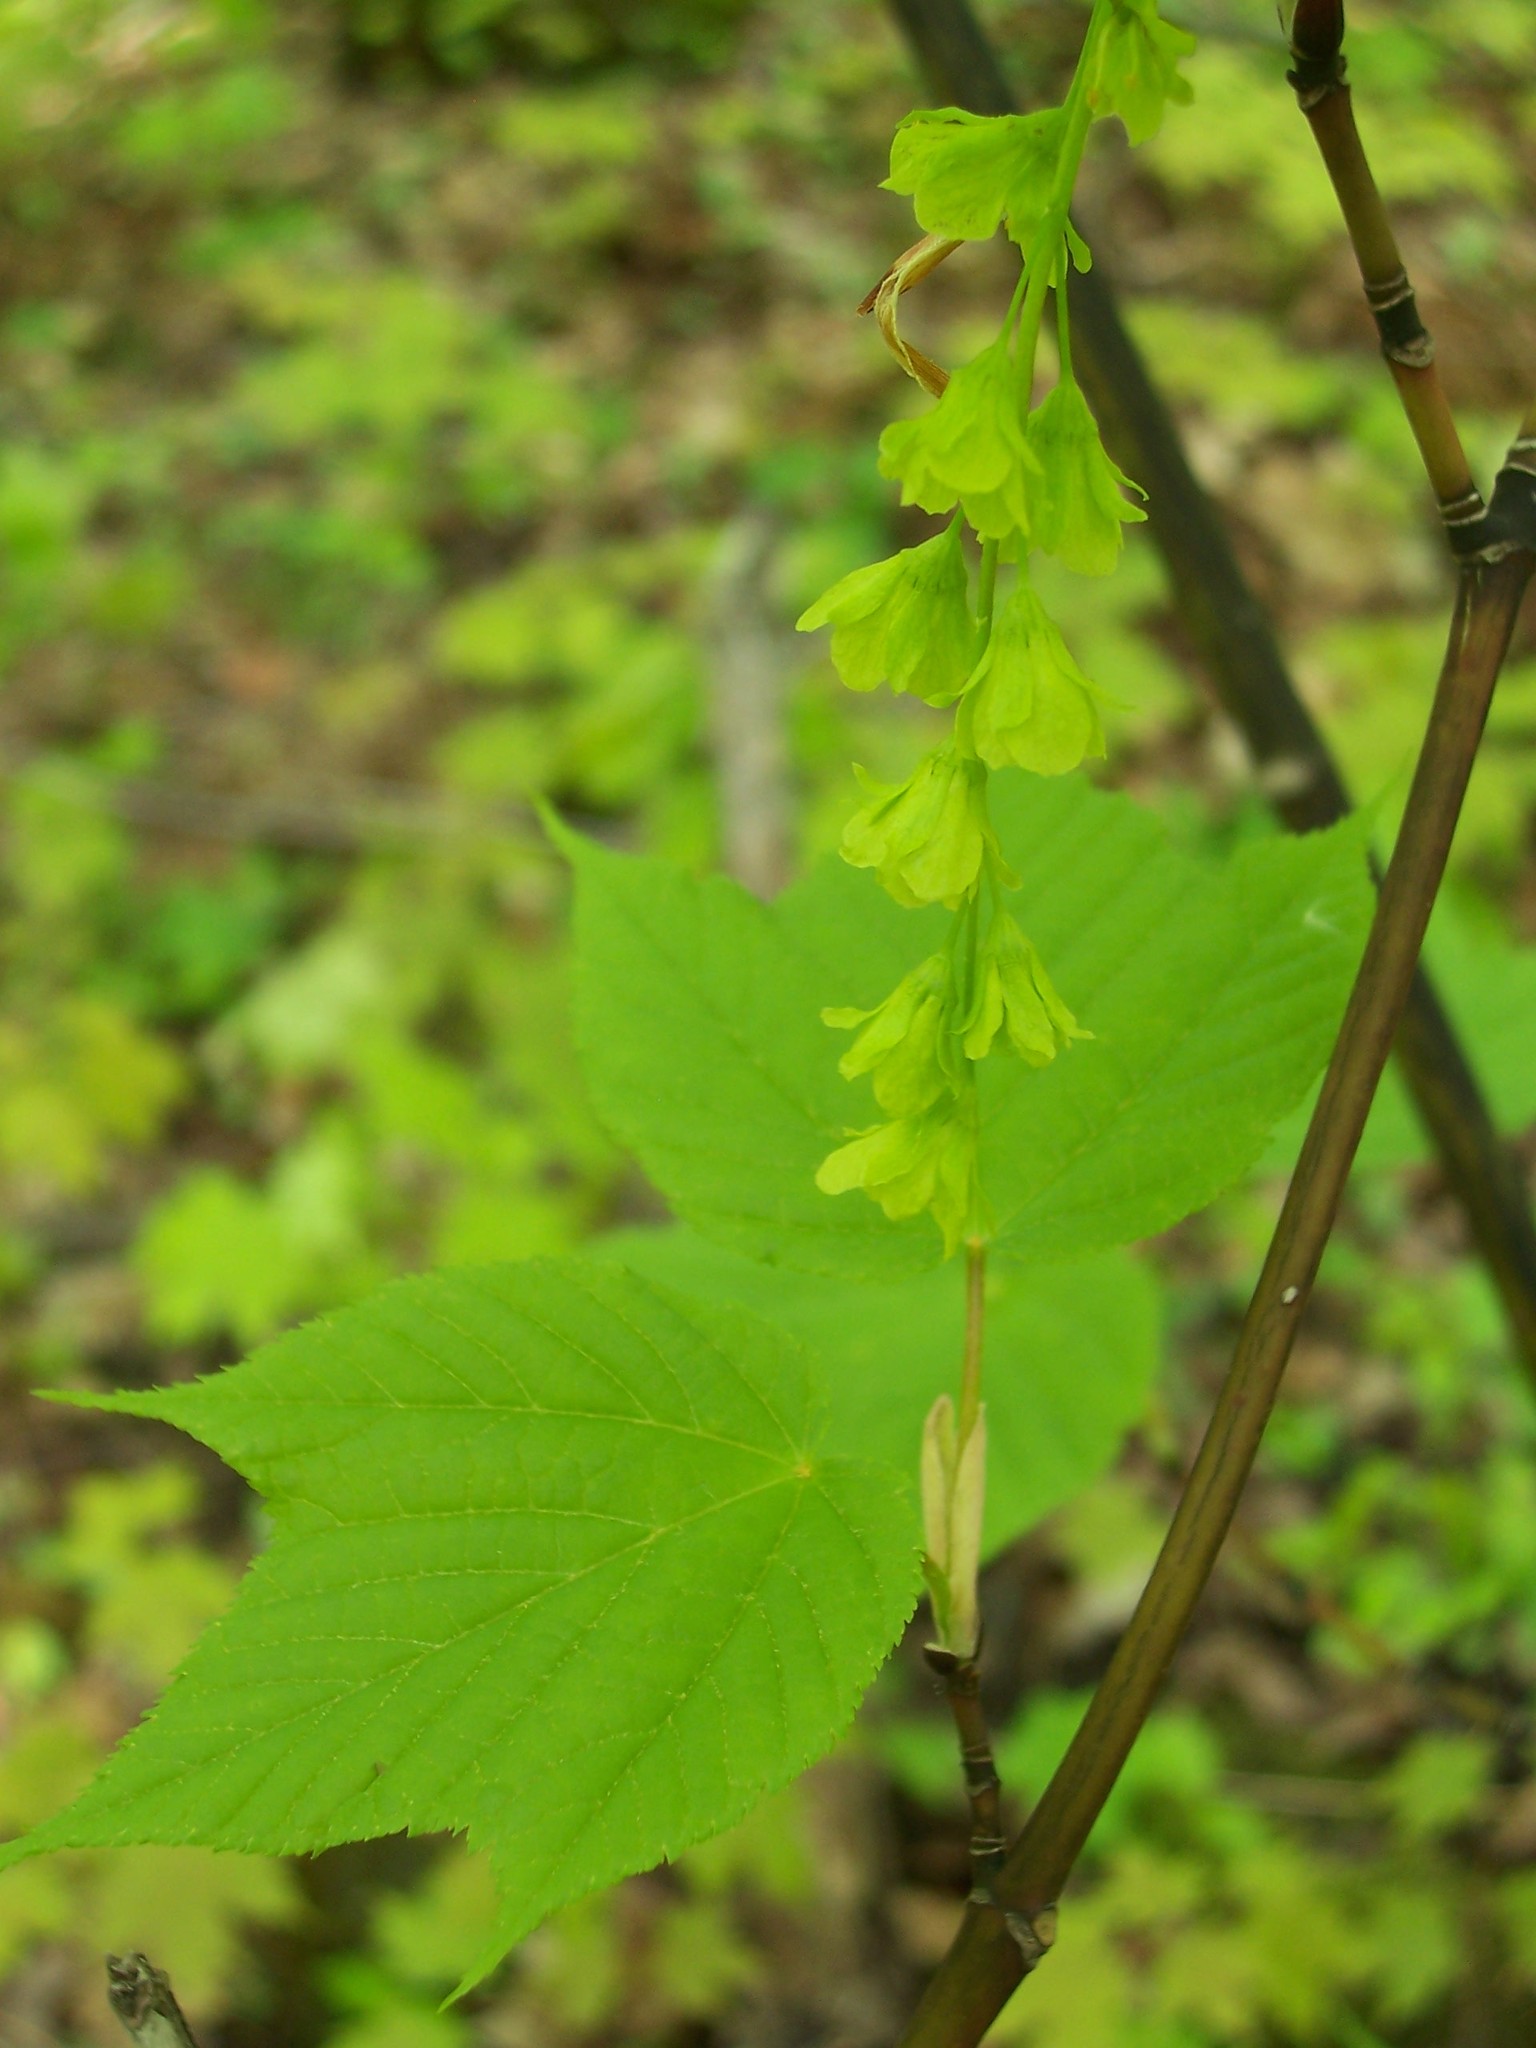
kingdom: Plantae
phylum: Tracheophyta
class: Magnoliopsida
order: Sapindales
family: Sapindaceae
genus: Acer
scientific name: Acer pensylvanicum
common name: Moosewood
